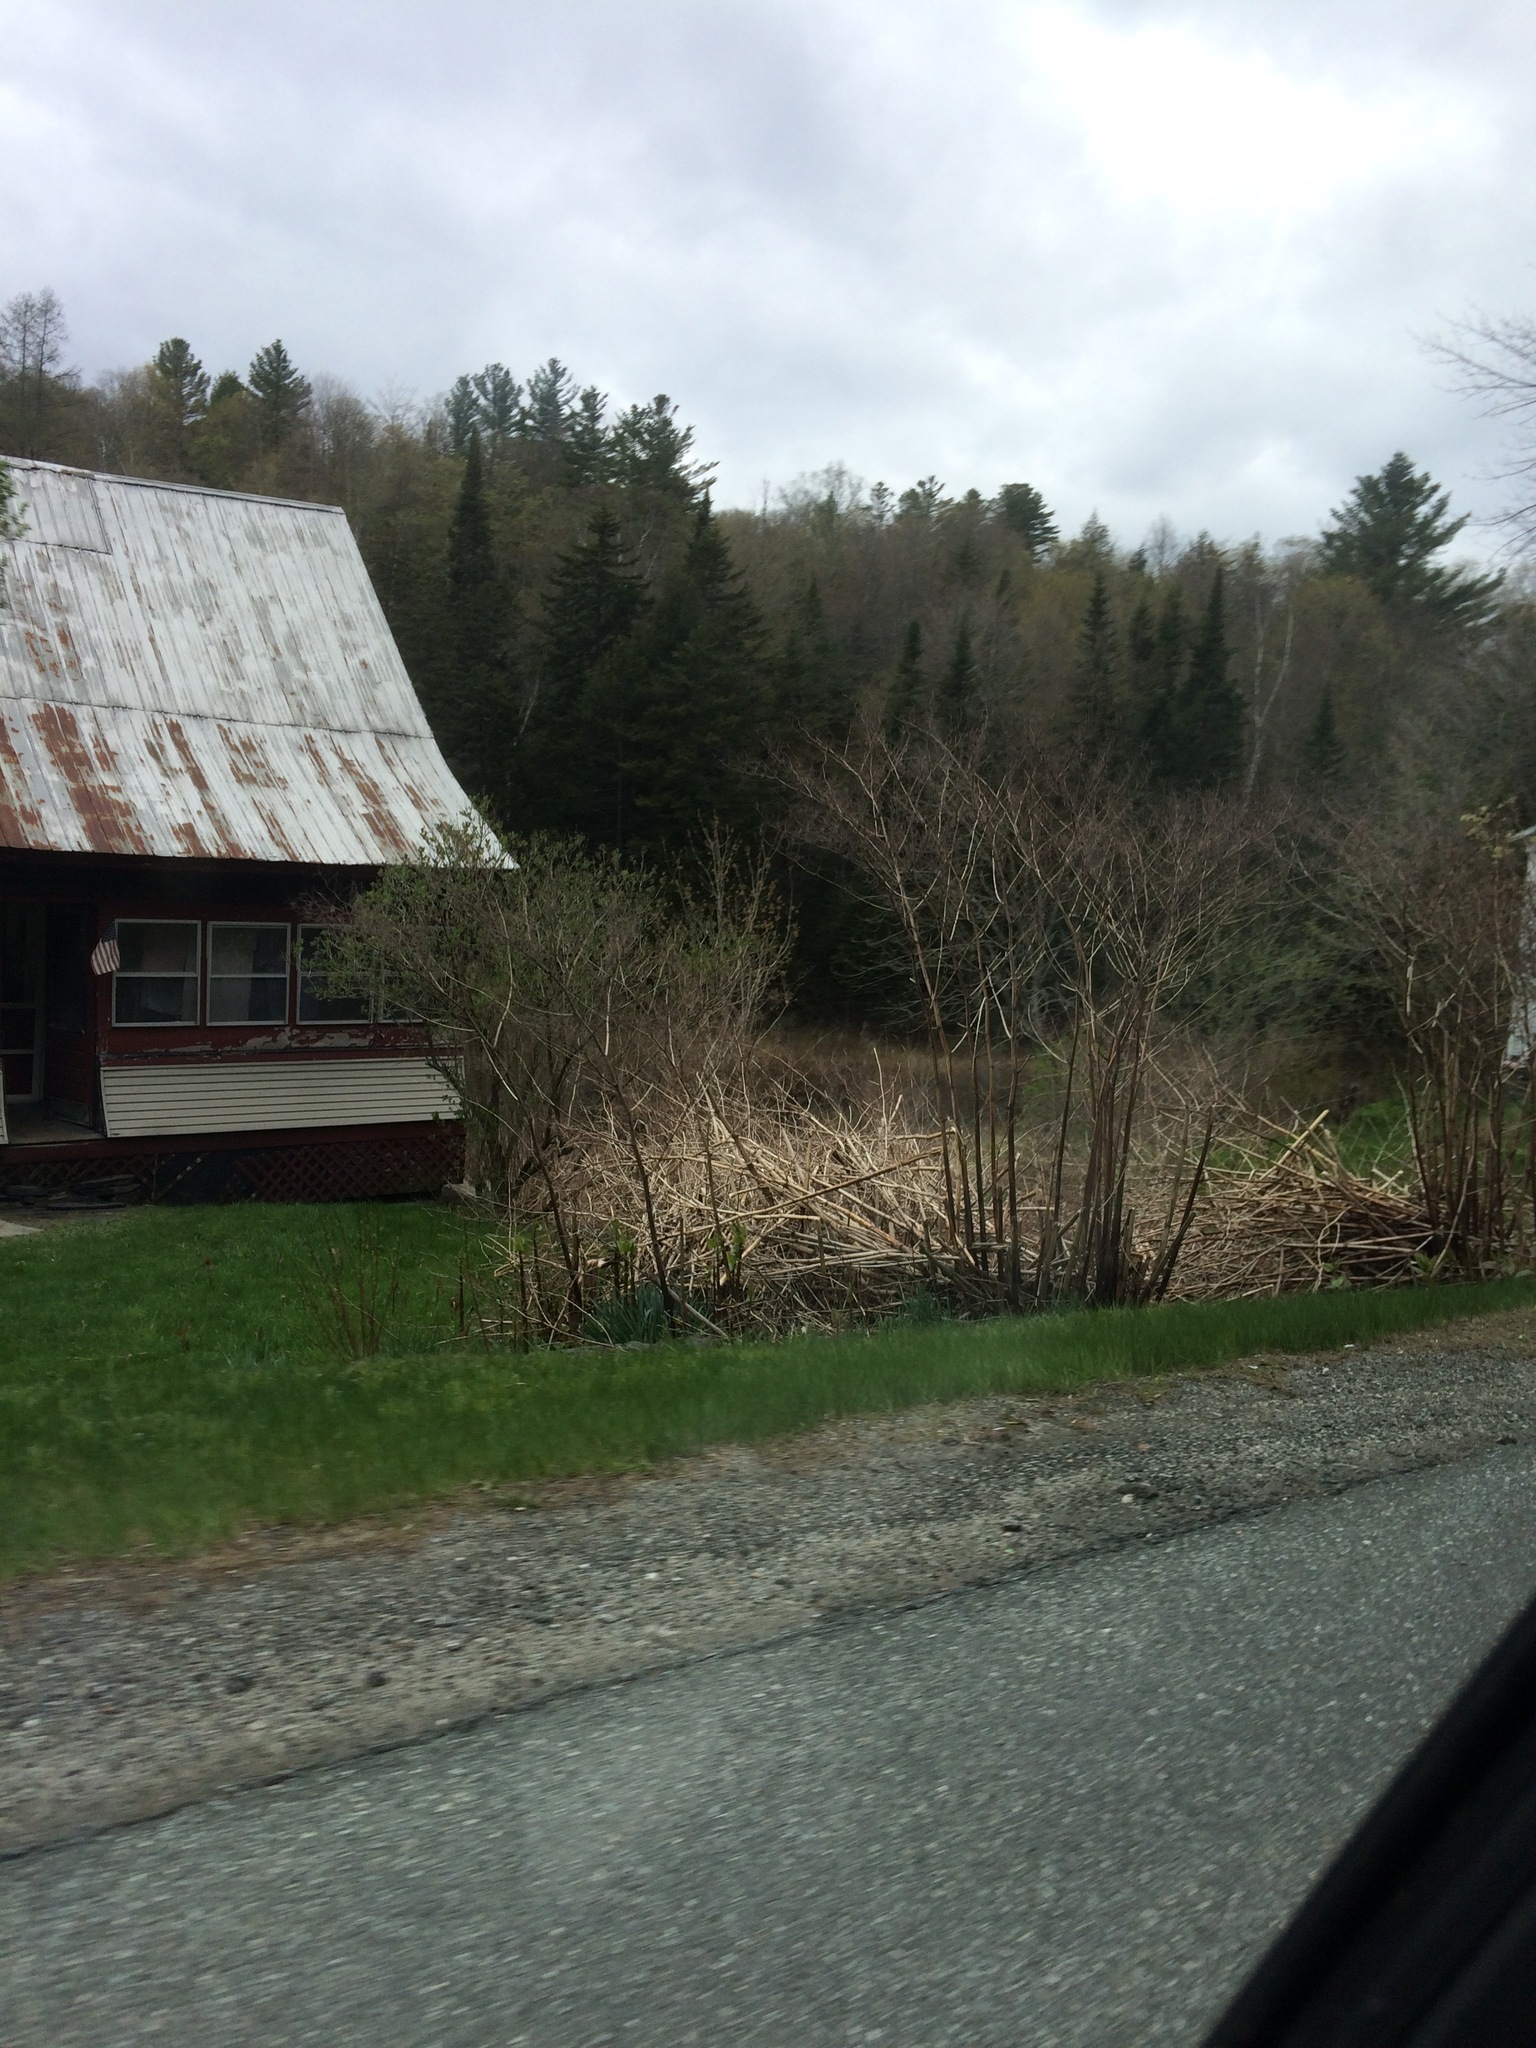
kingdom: Plantae
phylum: Tracheophyta
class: Magnoliopsida
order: Caryophyllales
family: Polygonaceae
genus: Reynoutria
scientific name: Reynoutria japonica
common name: Japanese knotweed
